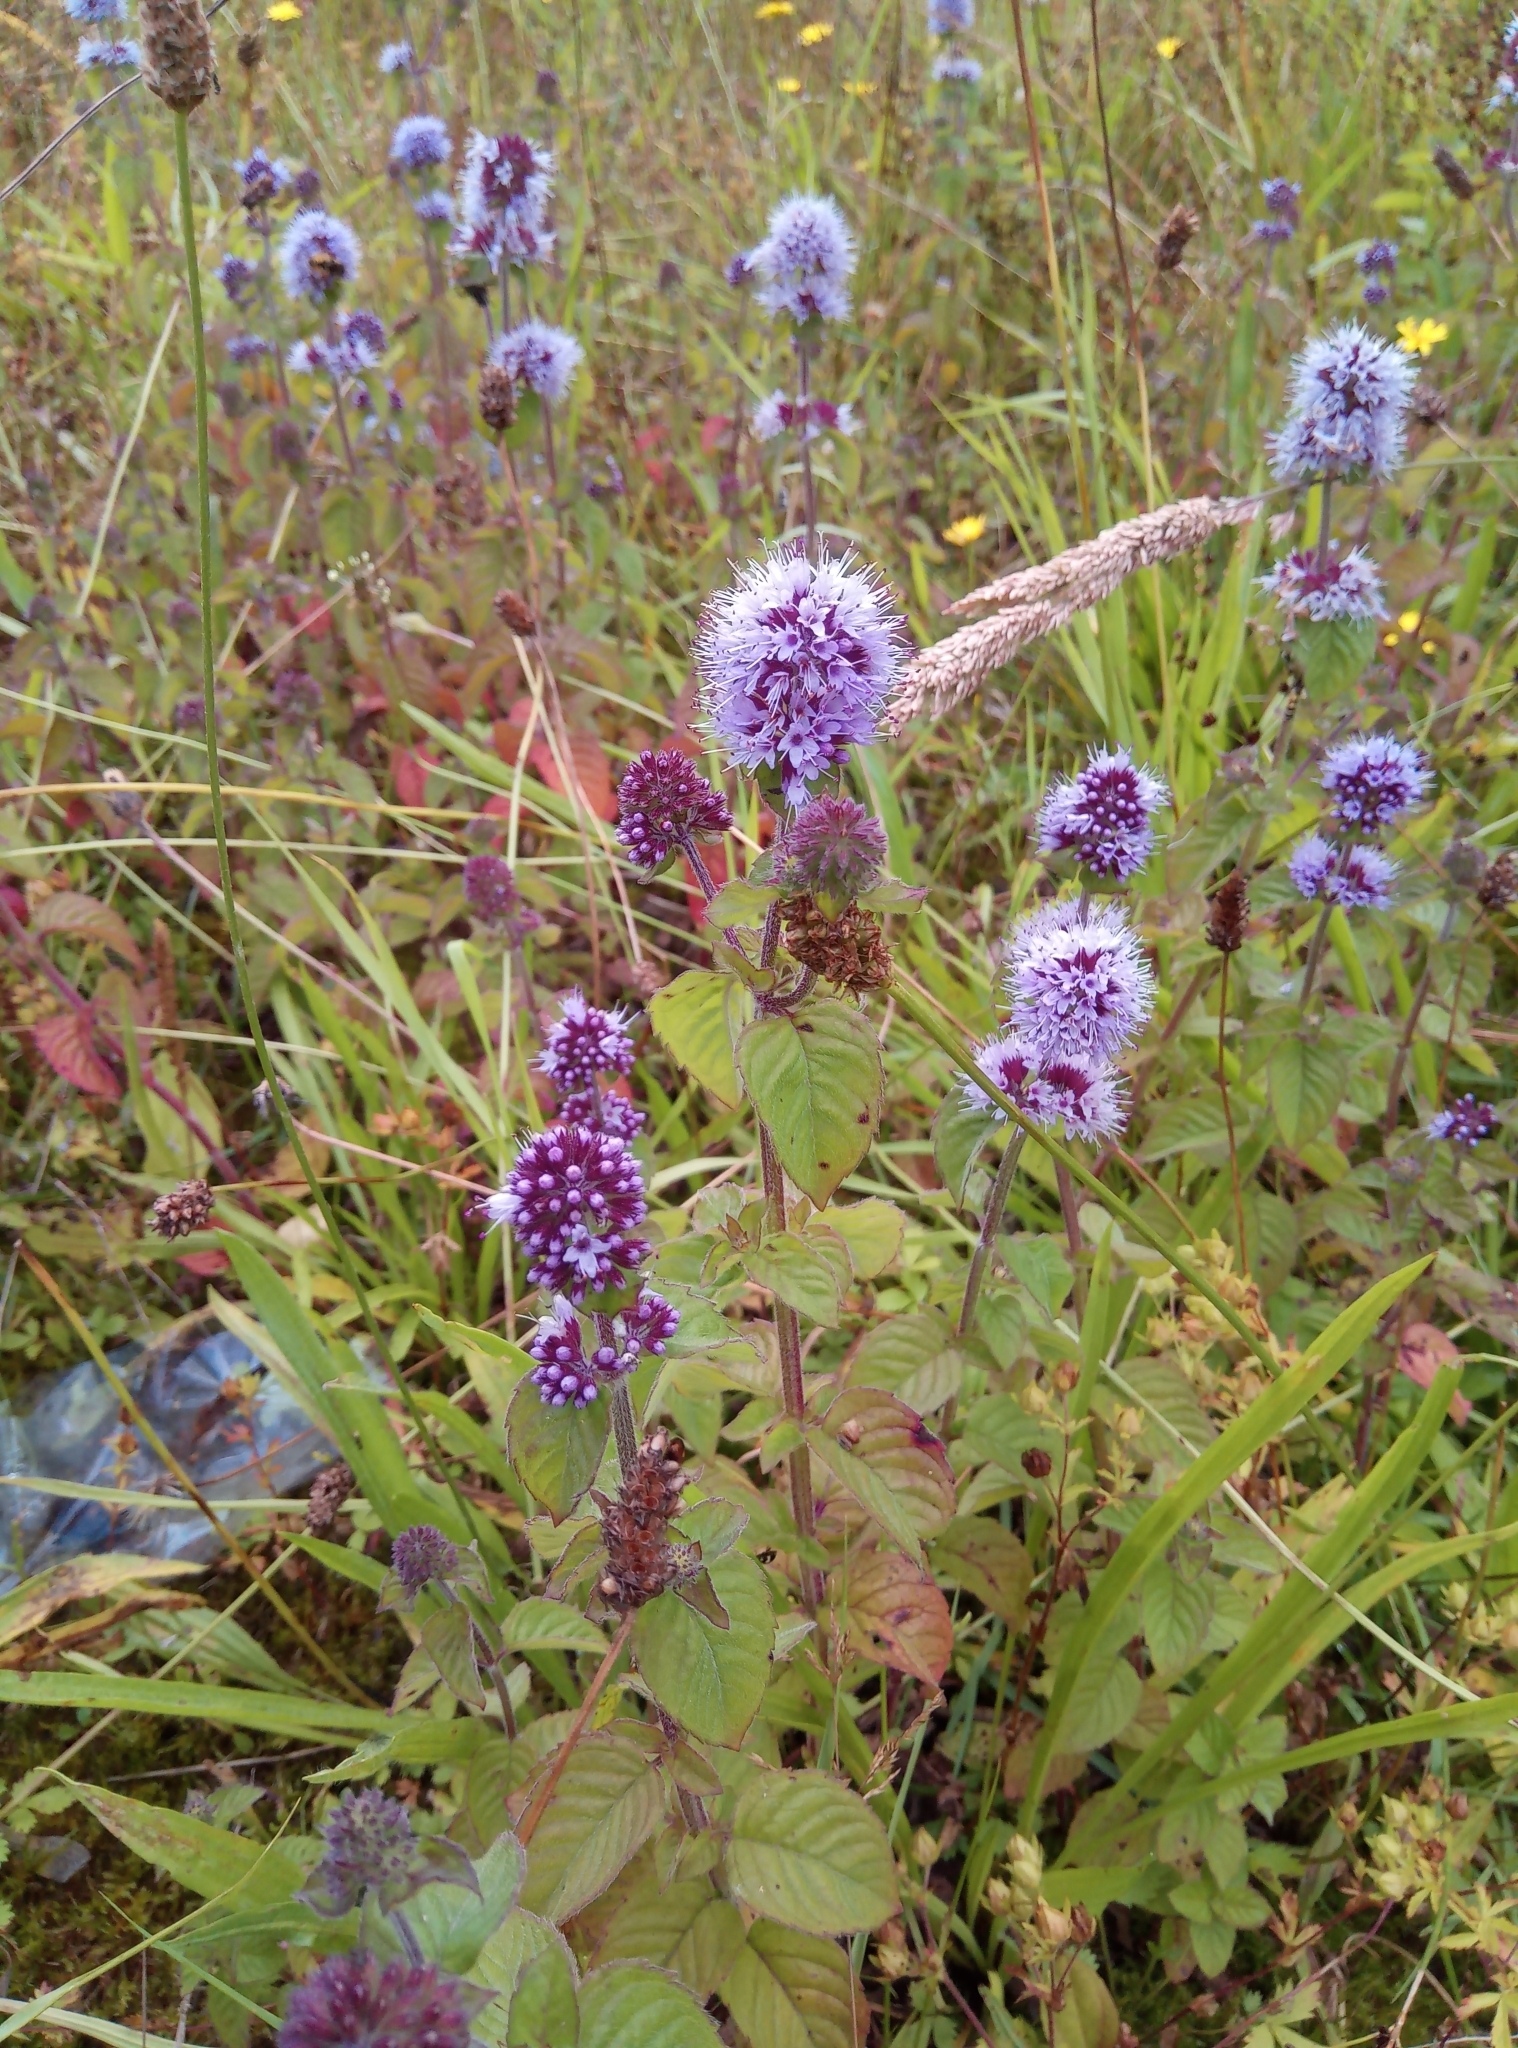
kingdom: Plantae
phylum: Tracheophyta
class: Magnoliopsida
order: Lamiales
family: Lamiaceae
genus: Mentha
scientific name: Mentha aquatica
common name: Water mint
